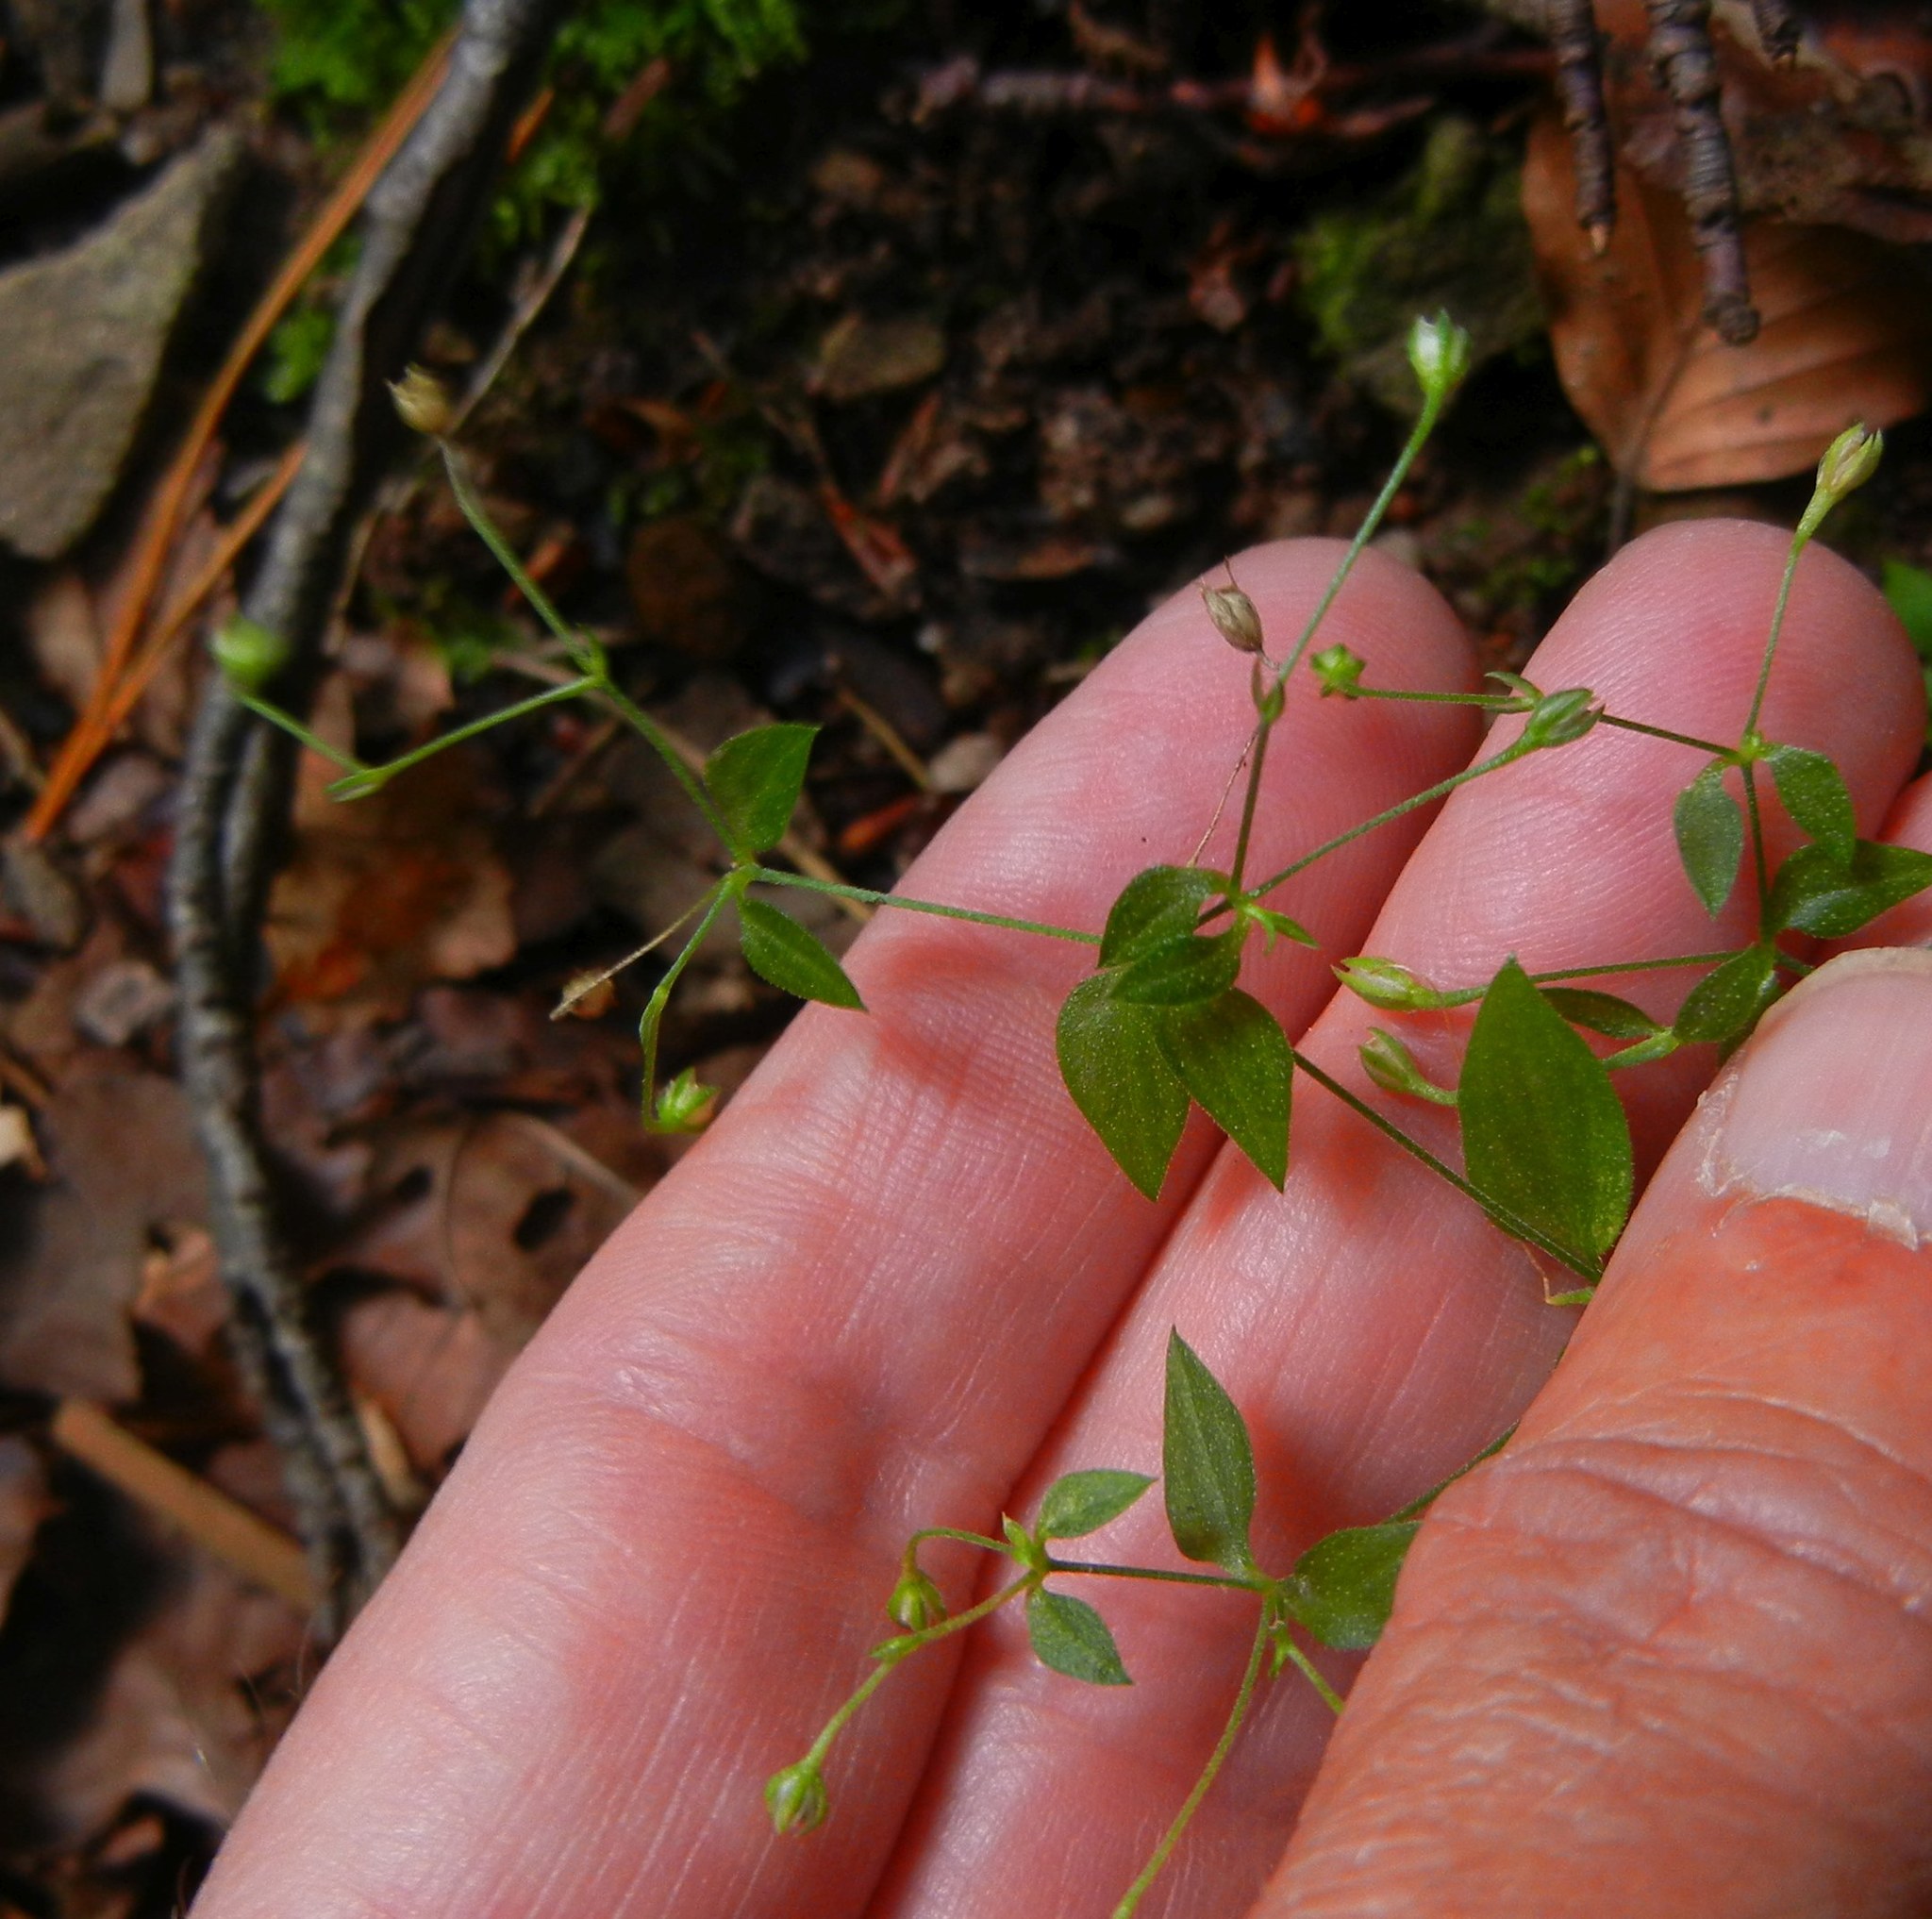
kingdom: Plantae
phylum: Tracheophyta
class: Magnoliopsida
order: Caryophyllales
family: Caryophyllaceae
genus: Moehringia
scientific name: Moehringia trinervia
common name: Three-nerved sandwort
